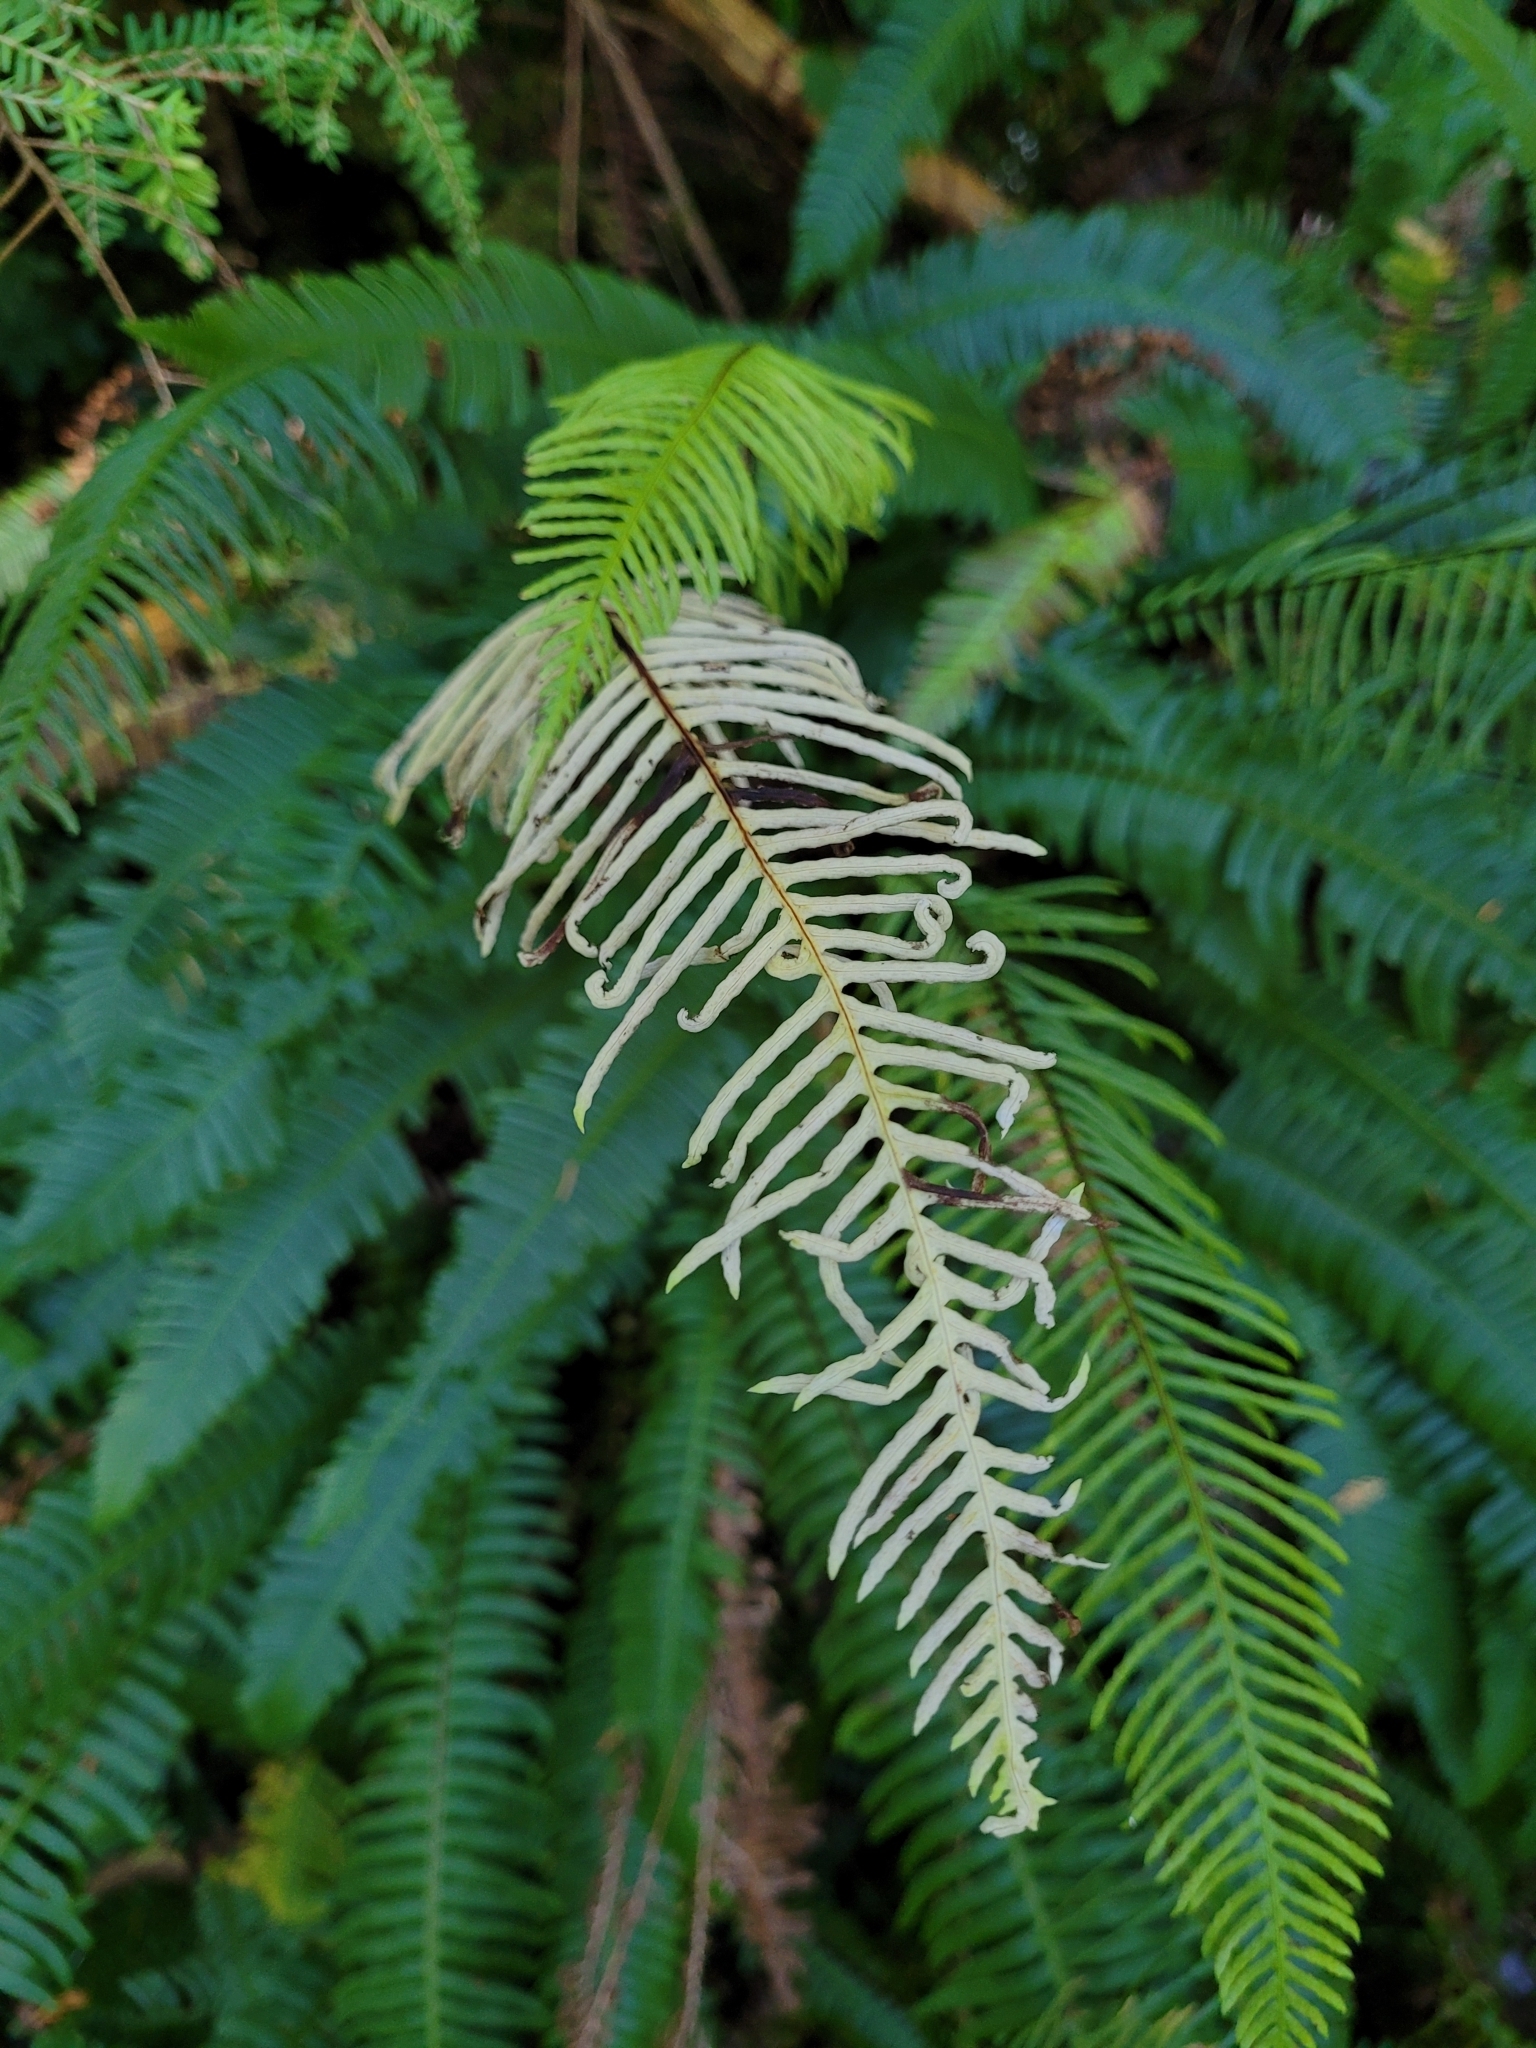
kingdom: Plantae
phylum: Tracheophyta
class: Polypodiopsida
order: Polypodiales
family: Blechnaceae
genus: Struthiopteris
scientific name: Struthiopteris spicant
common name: Deer fern
